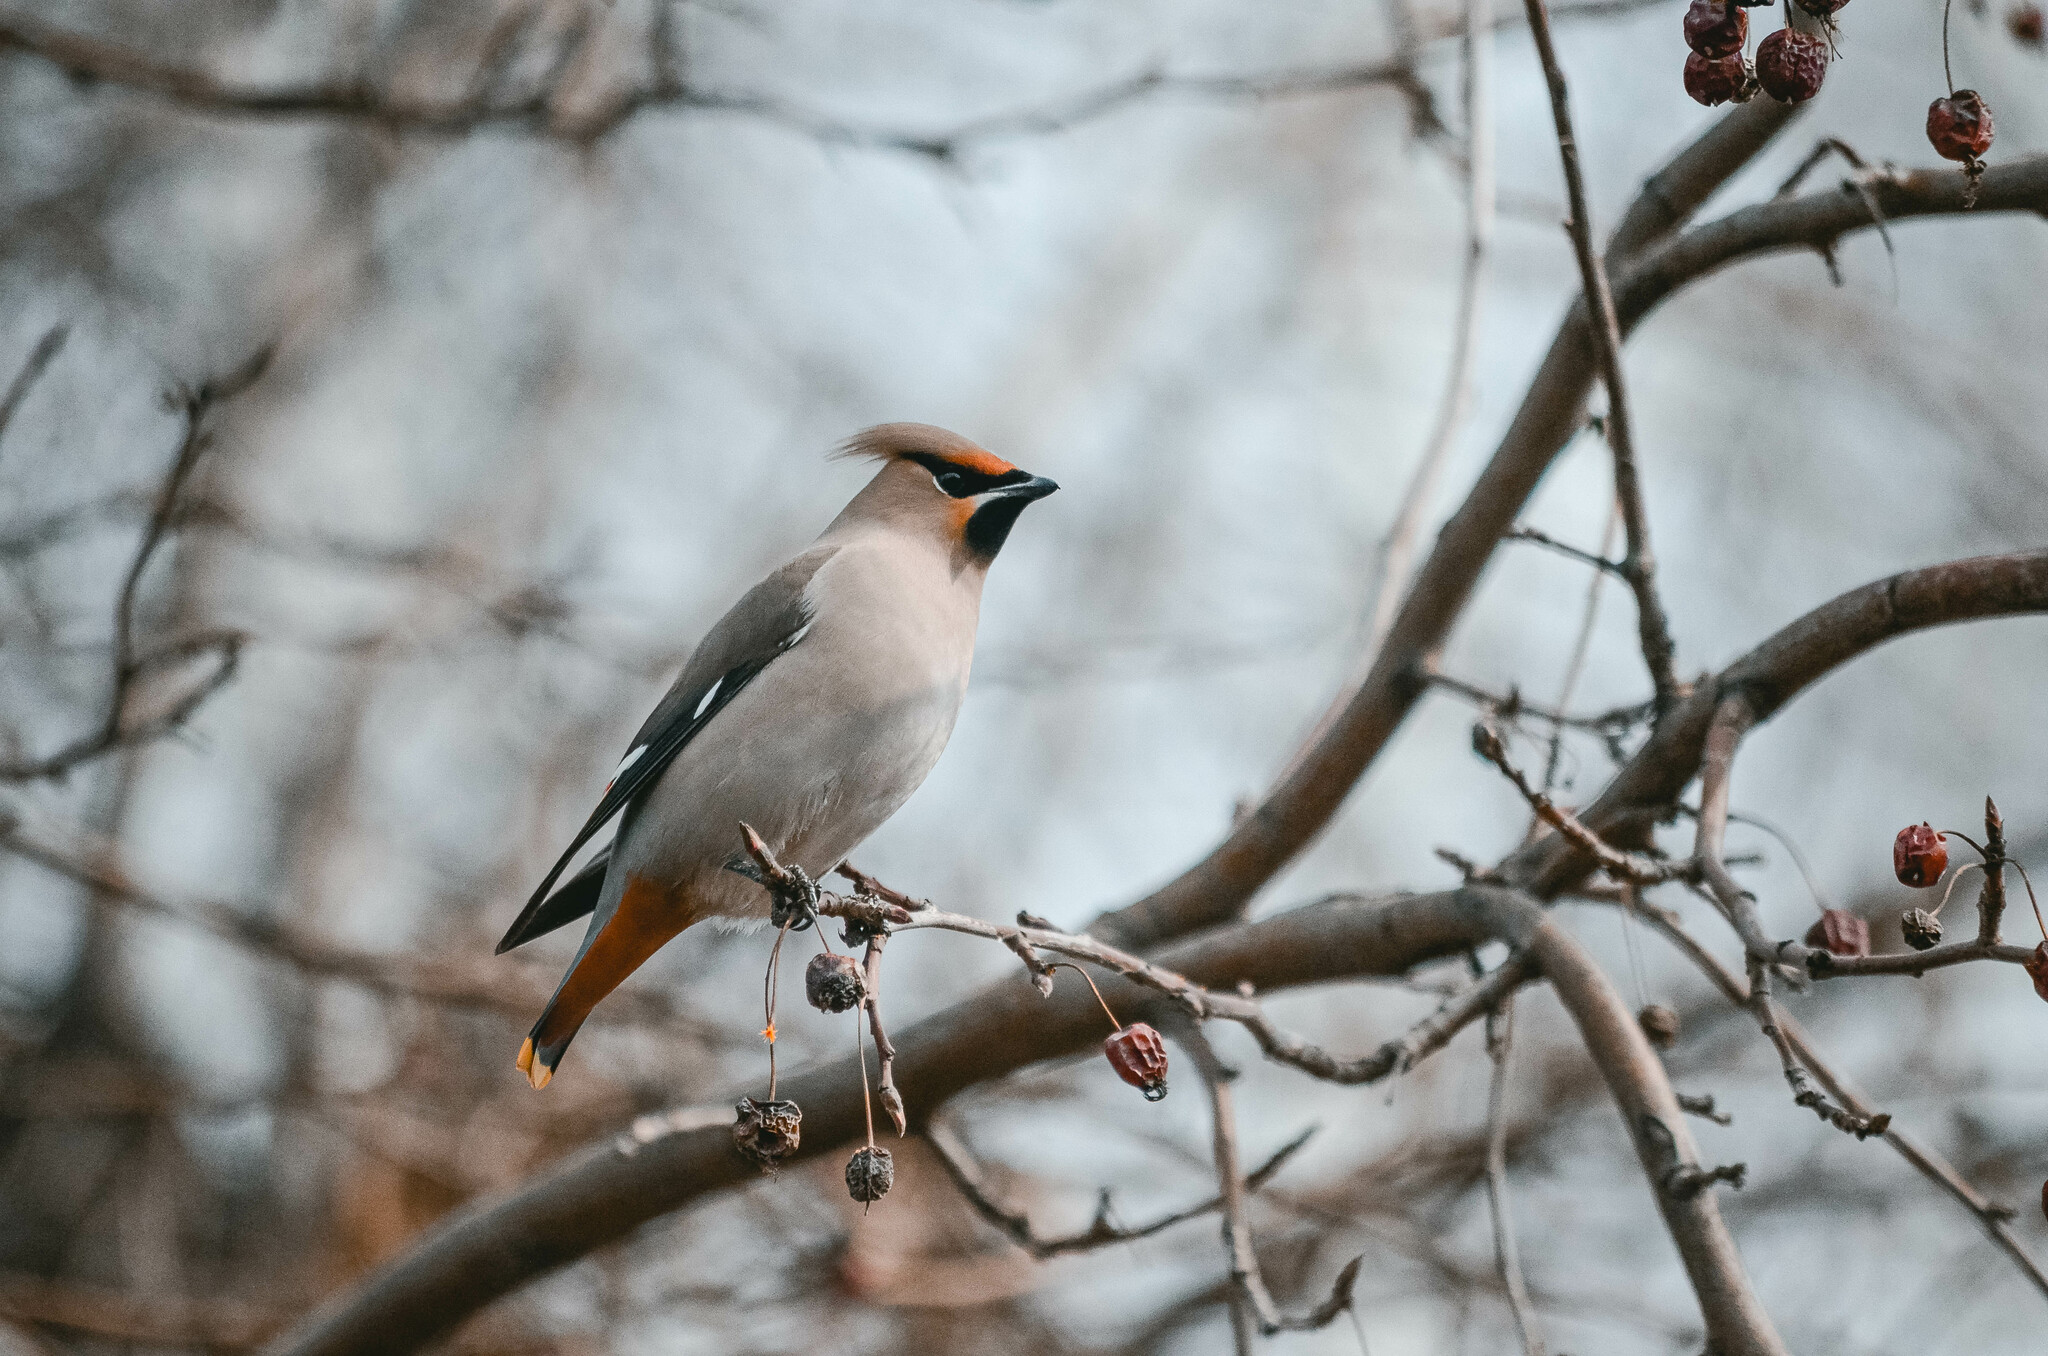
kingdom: Animalia
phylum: Chordata
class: Aves
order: Passeriformes
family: Bombycillidae
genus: Bombycilla
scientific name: Bombycilla garrulus
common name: Bohemian waxwing
